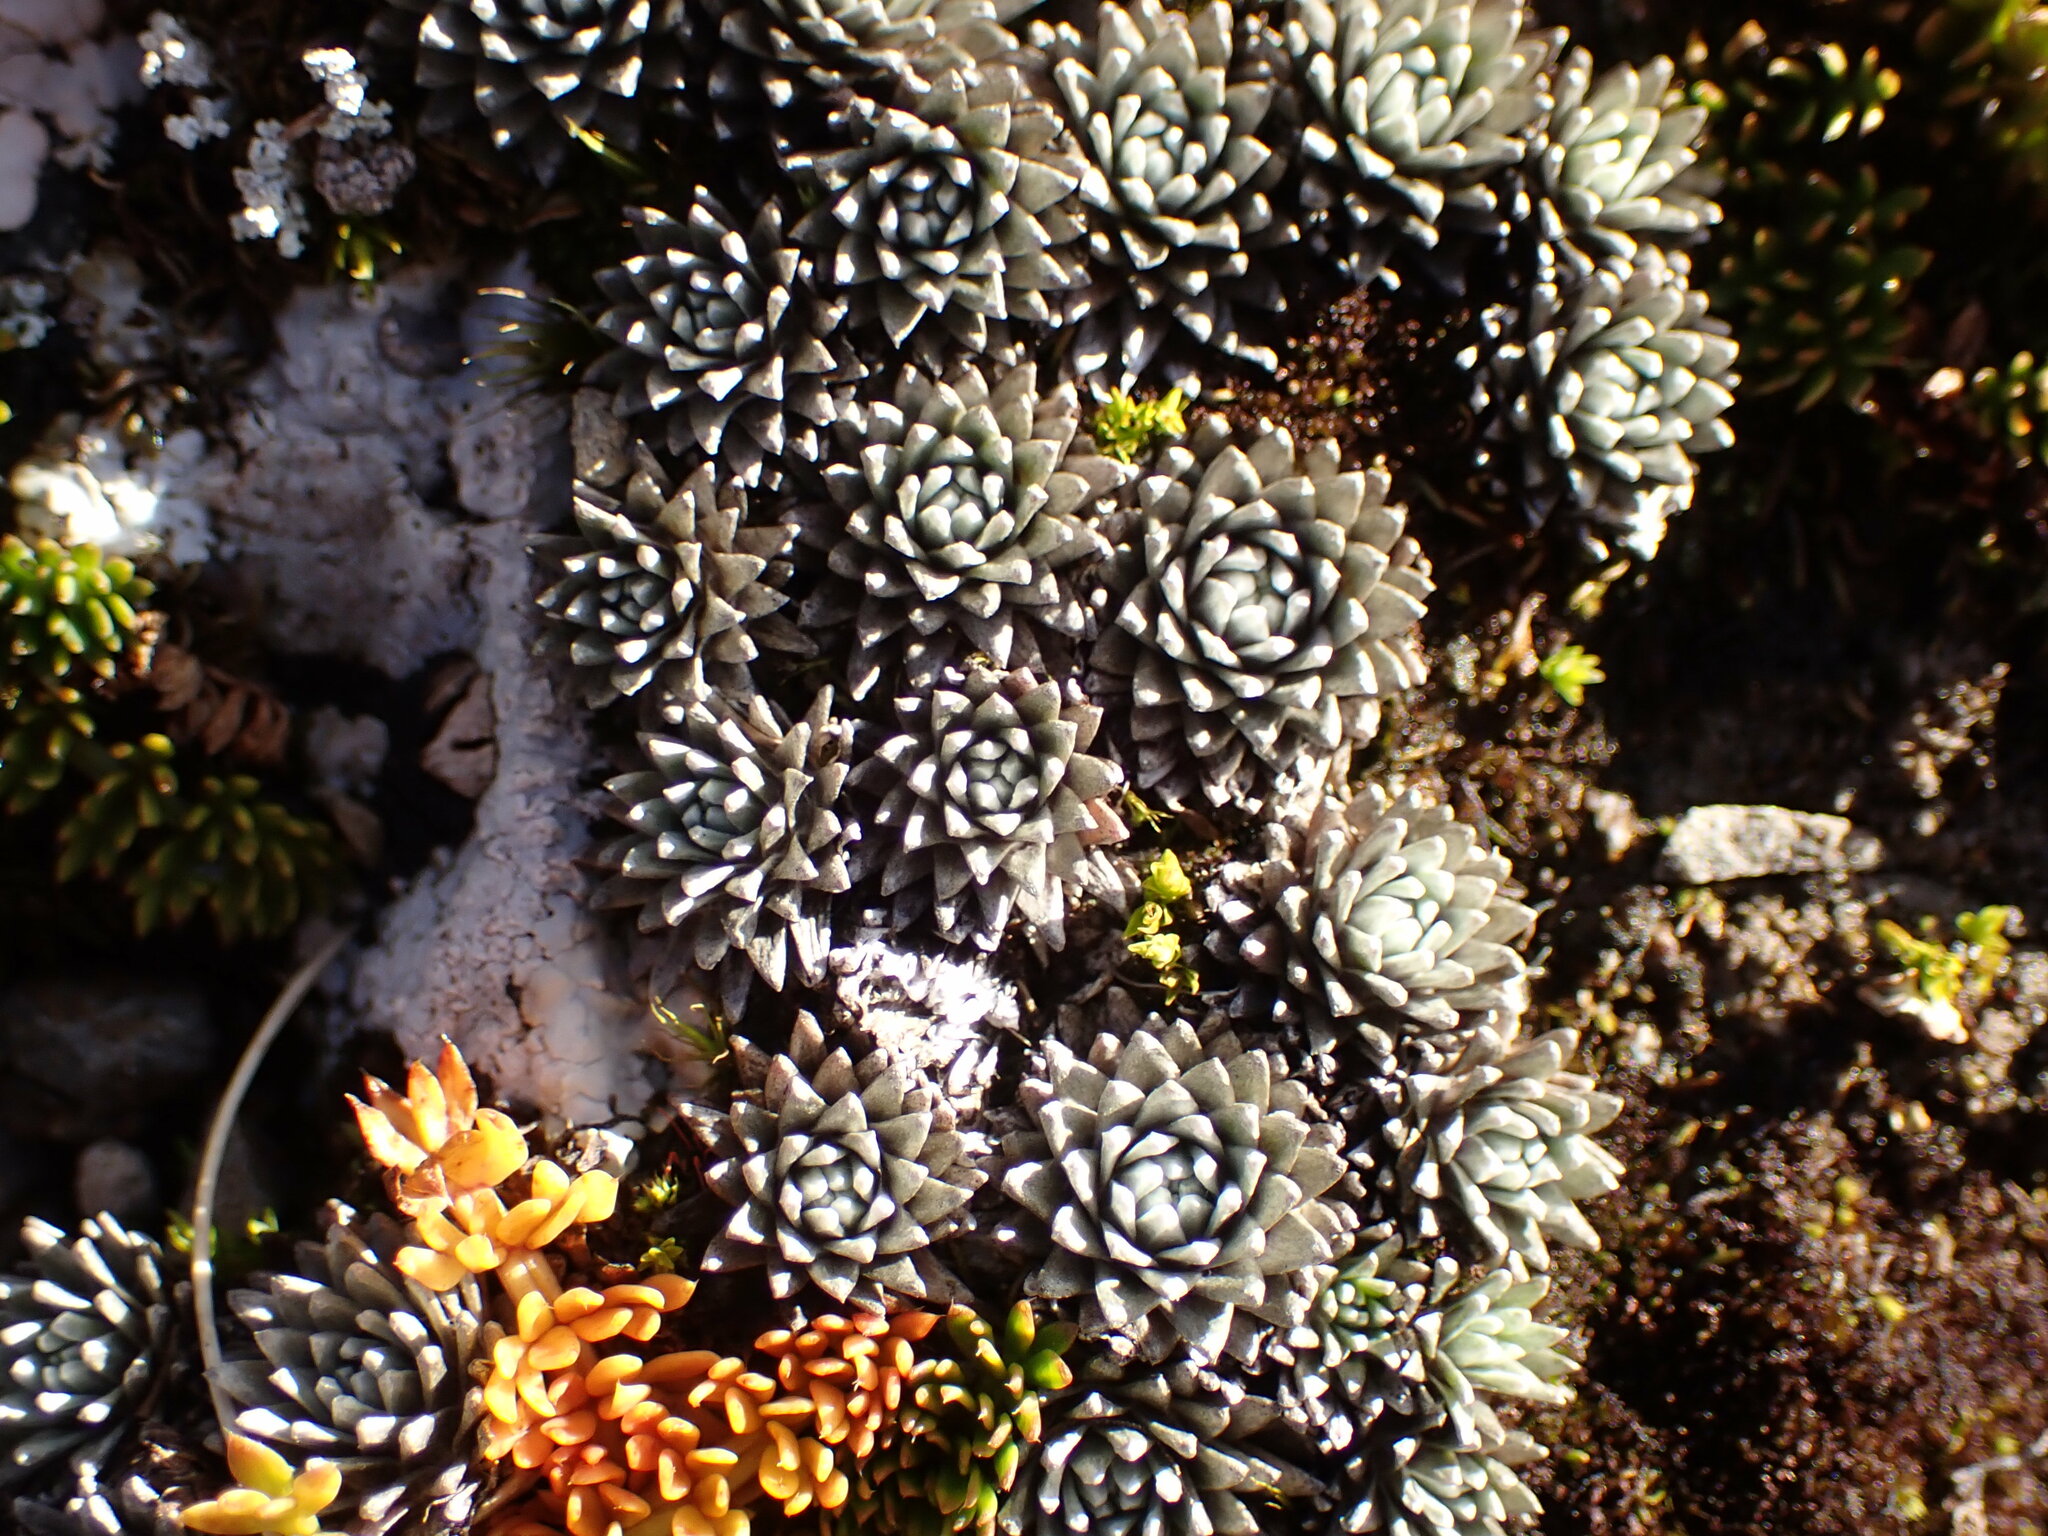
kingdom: Plantae
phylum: Tracheophyta
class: Magnoliopsida
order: Asterales
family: Asteraceae
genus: Raoulia
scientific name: Raoulia grandiflora
